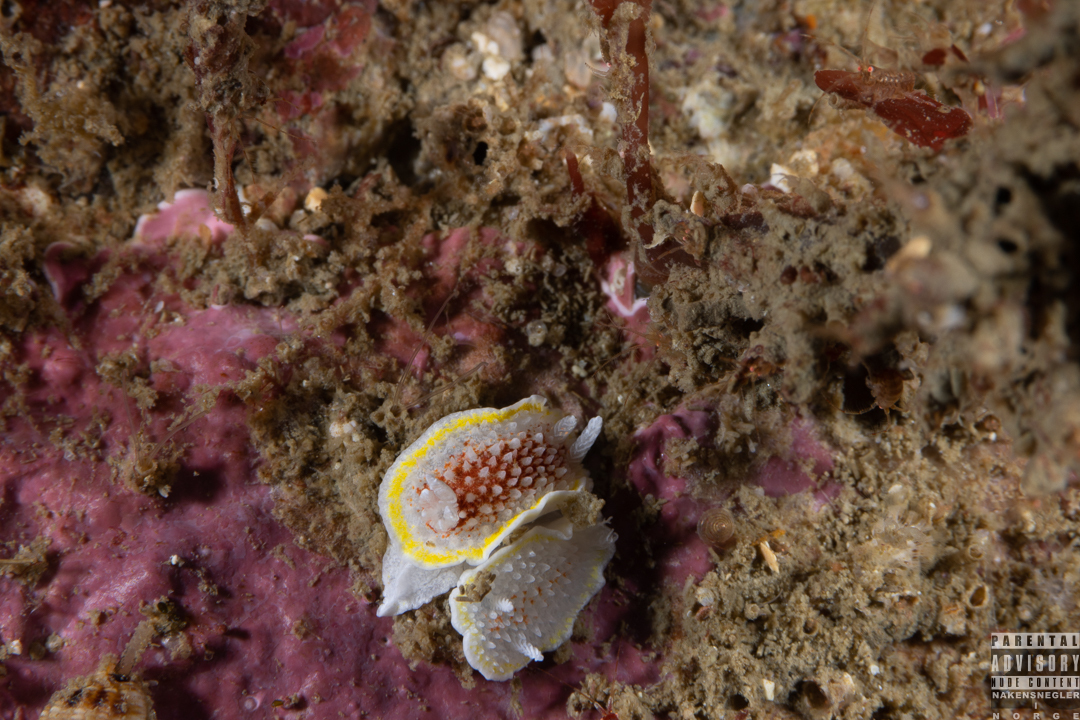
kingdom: Animalia
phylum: Mollusca
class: Gastropoda
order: Nudibranchia
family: Calycidorididae
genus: Diaphorodoris
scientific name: Diaphorodoris luteocincta
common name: Fried egg nudibranch
